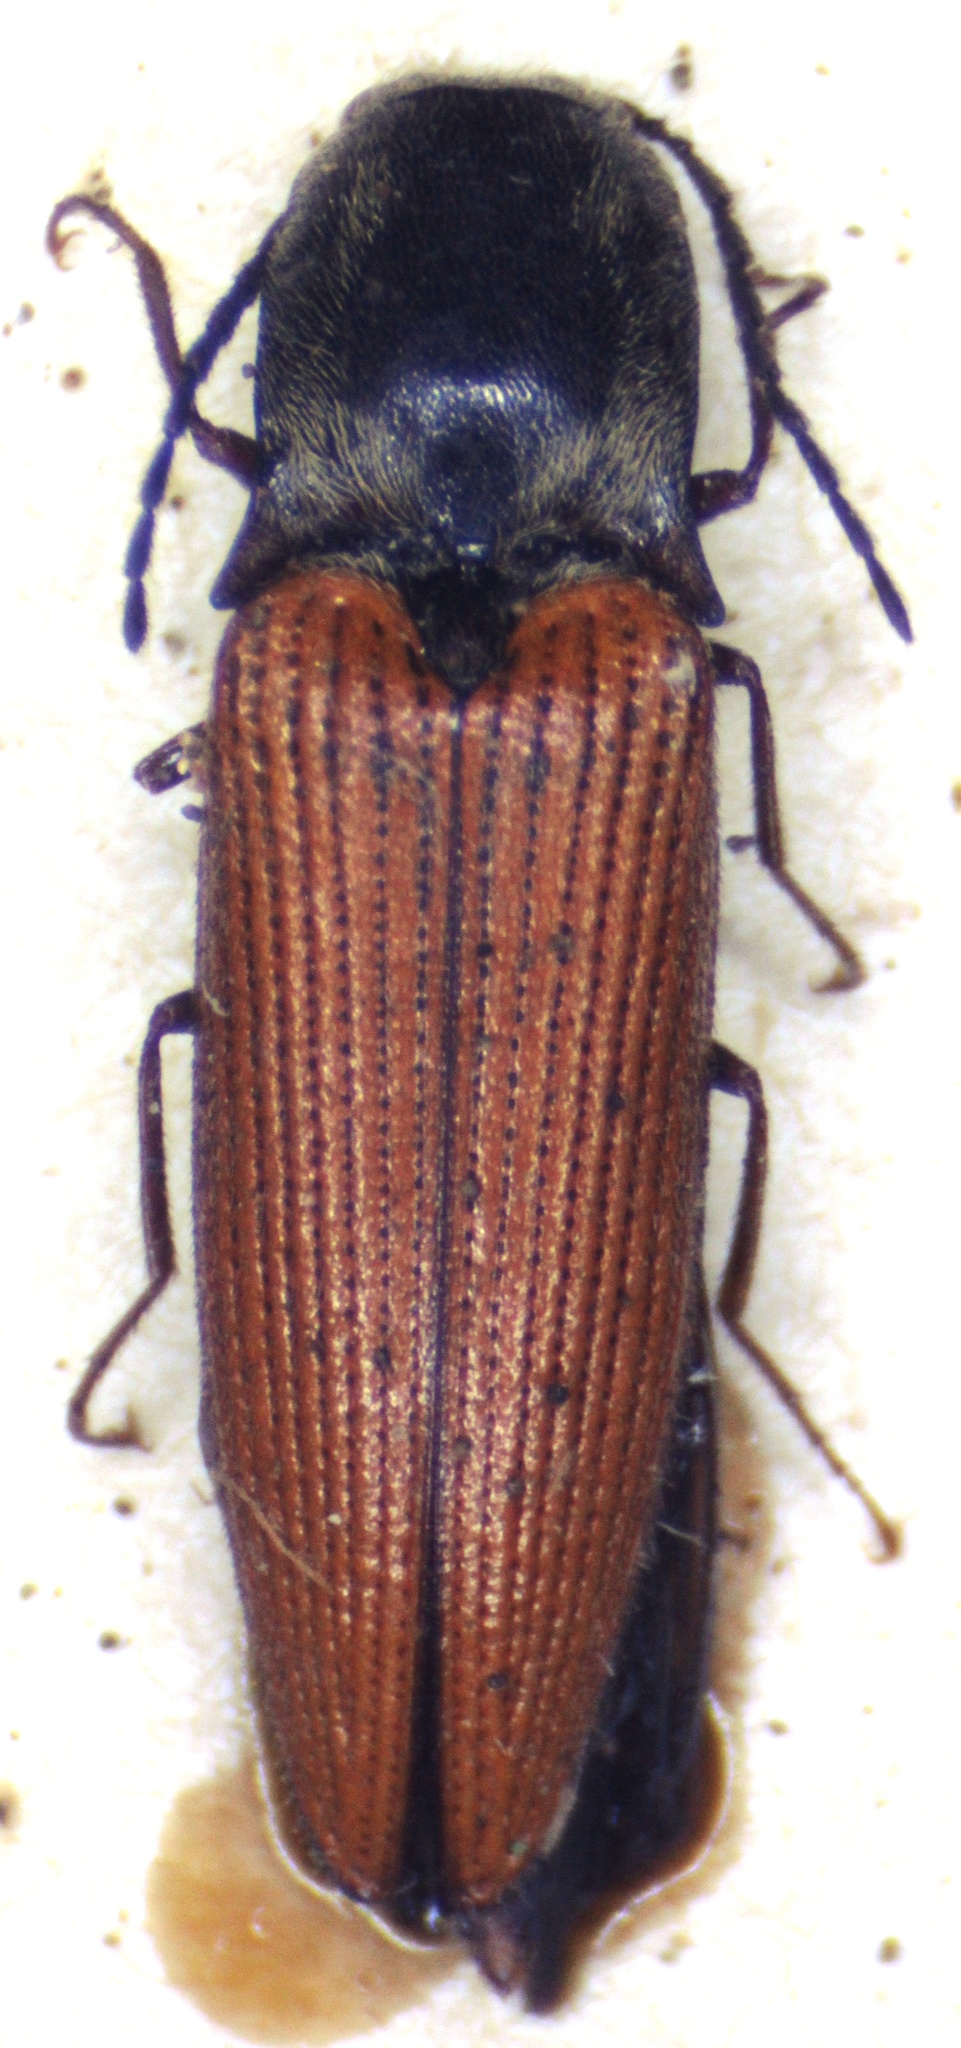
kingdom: Animalia
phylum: Arthropoda
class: Insecta
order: Coleoptera
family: Elateridae
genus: Hemicrepidius
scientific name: Hemicrepidius
